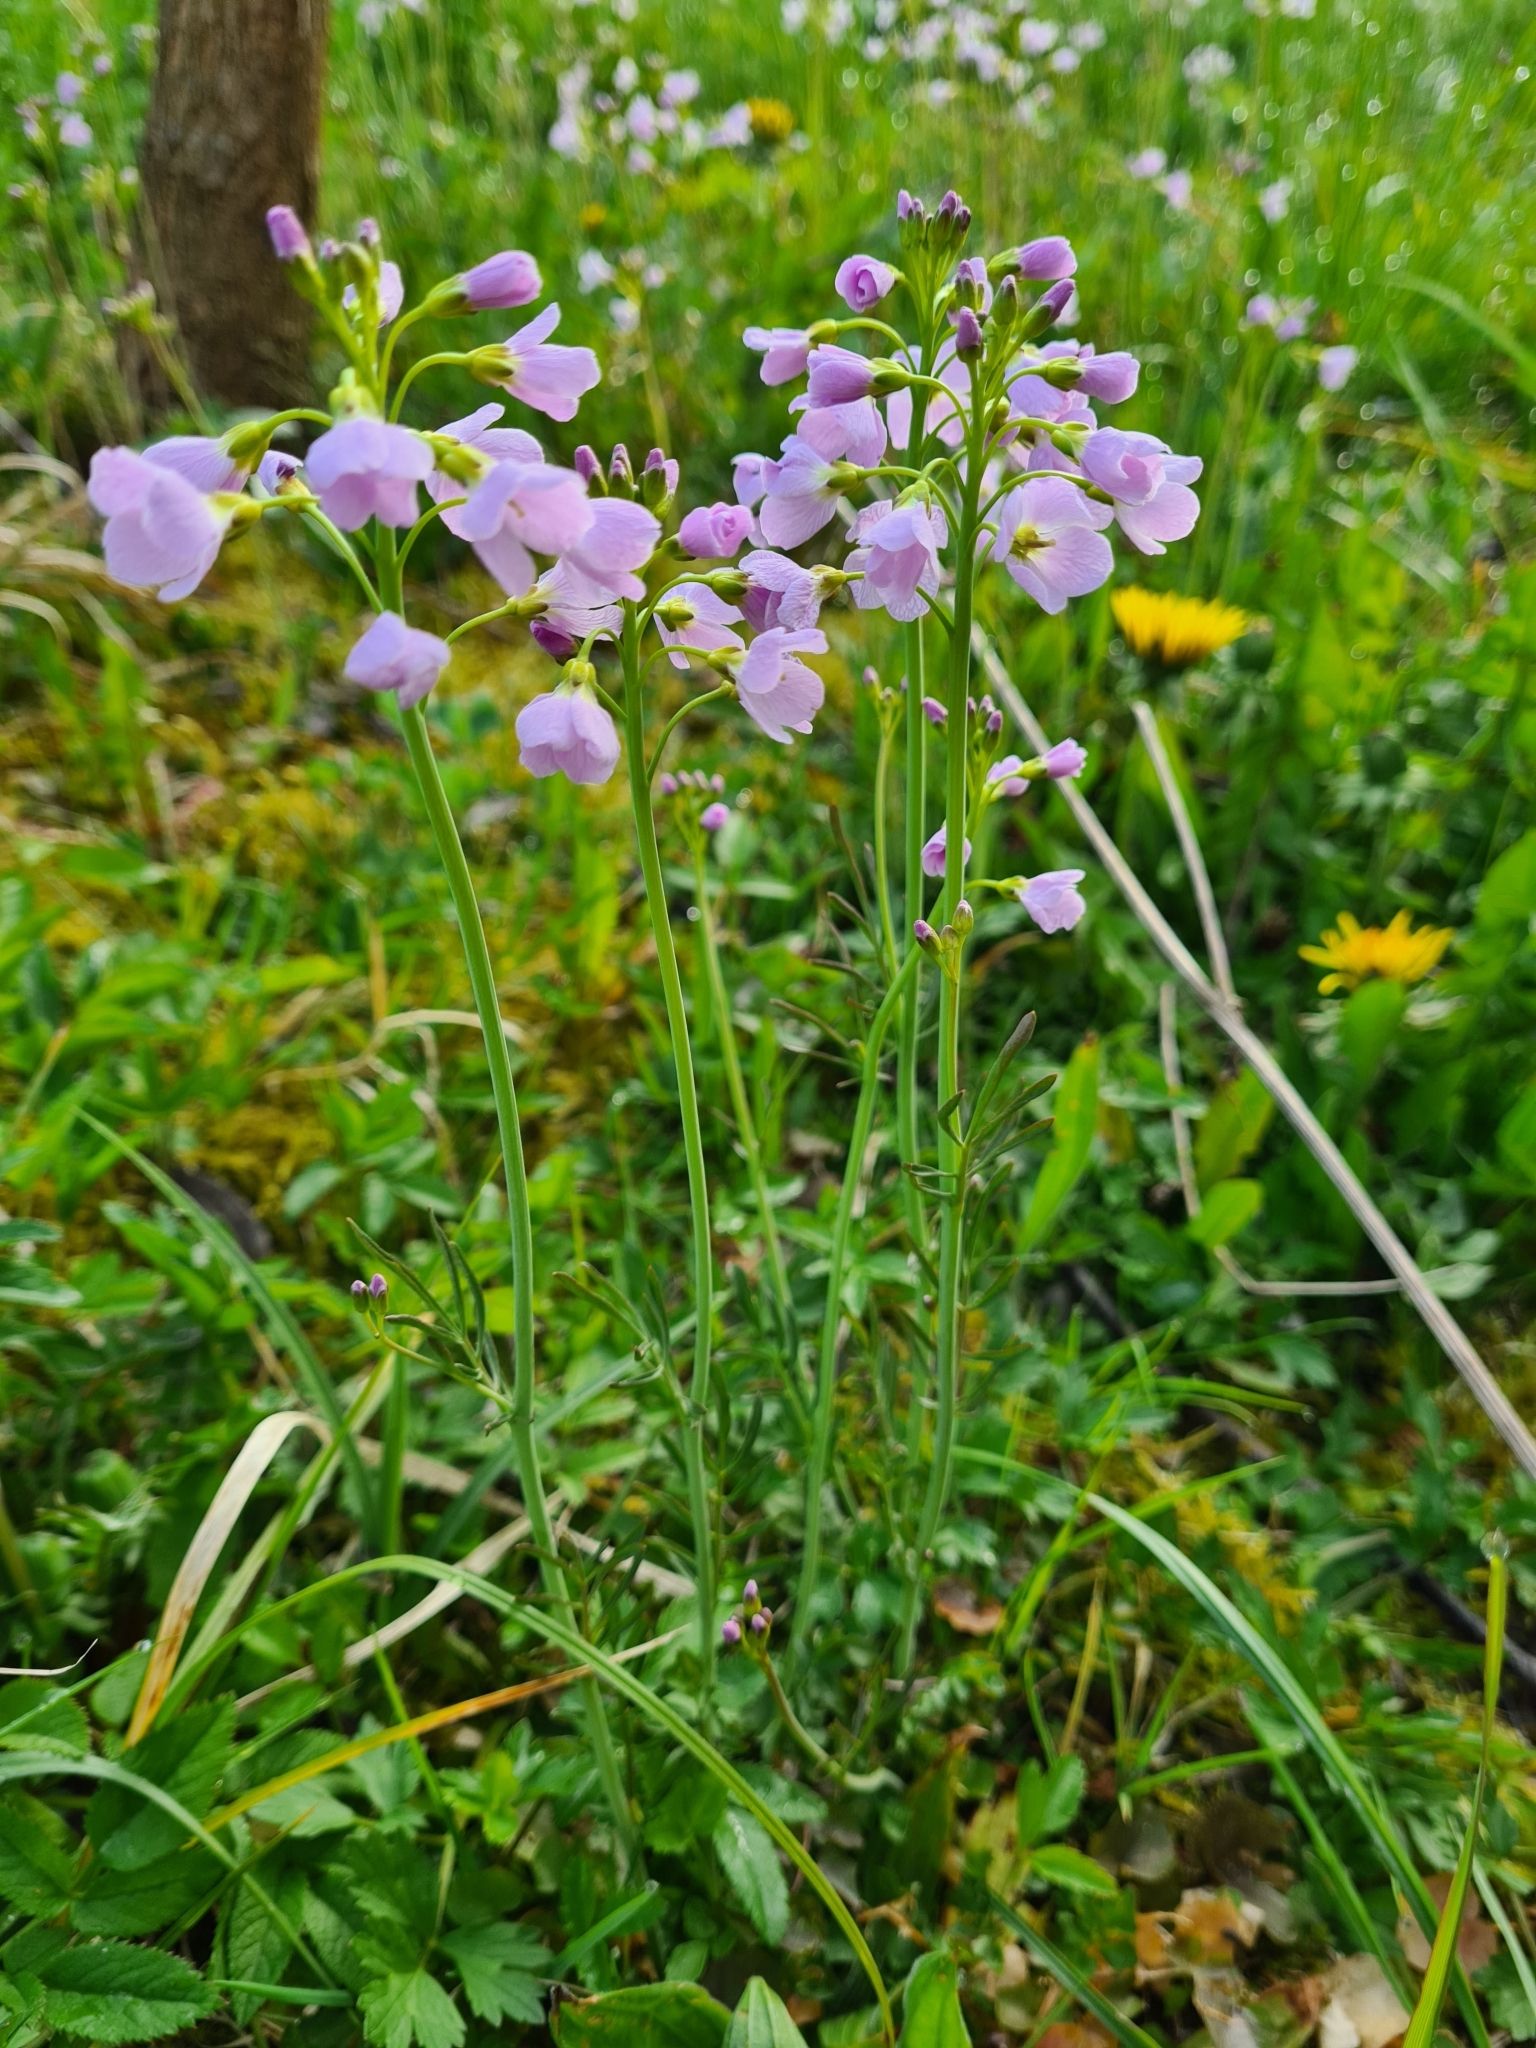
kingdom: Plantae
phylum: Tracheophyta
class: Magnoliopsida
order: Brassicales
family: Brassicaceae
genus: Cardamine
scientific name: Cardamine pratensis
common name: Cuckoo flower
